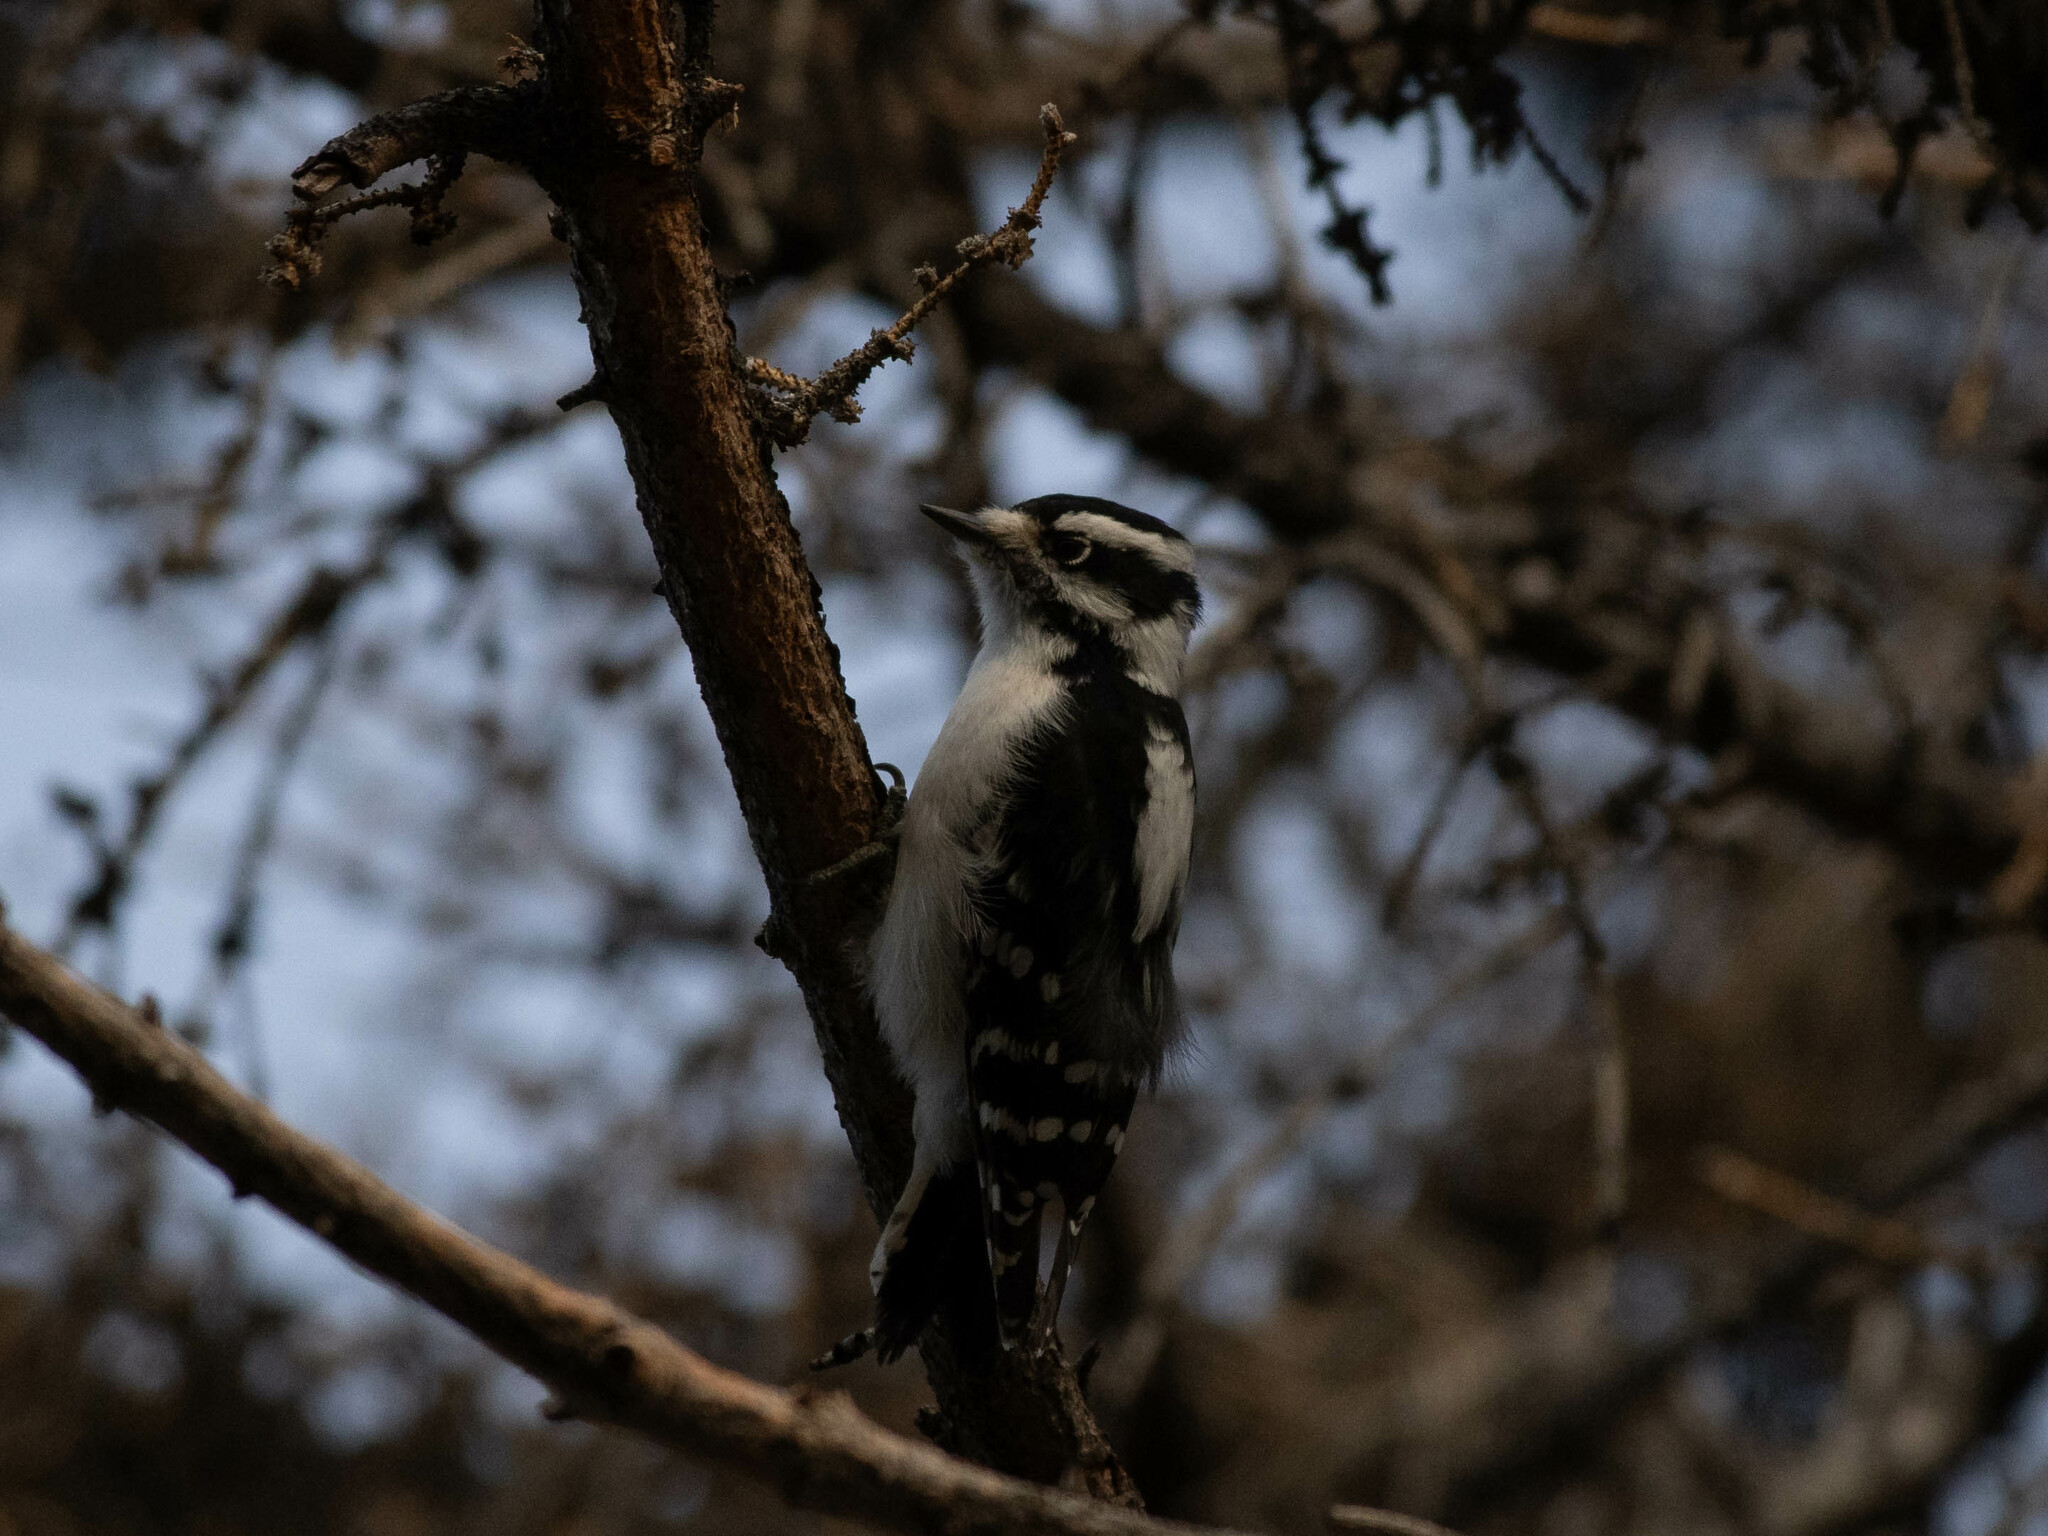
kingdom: Animalia
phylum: Chordata
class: Aves
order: Piciformes
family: Picidae
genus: Dryobates
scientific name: Dryobates pubescens
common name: Downy woodpecker
